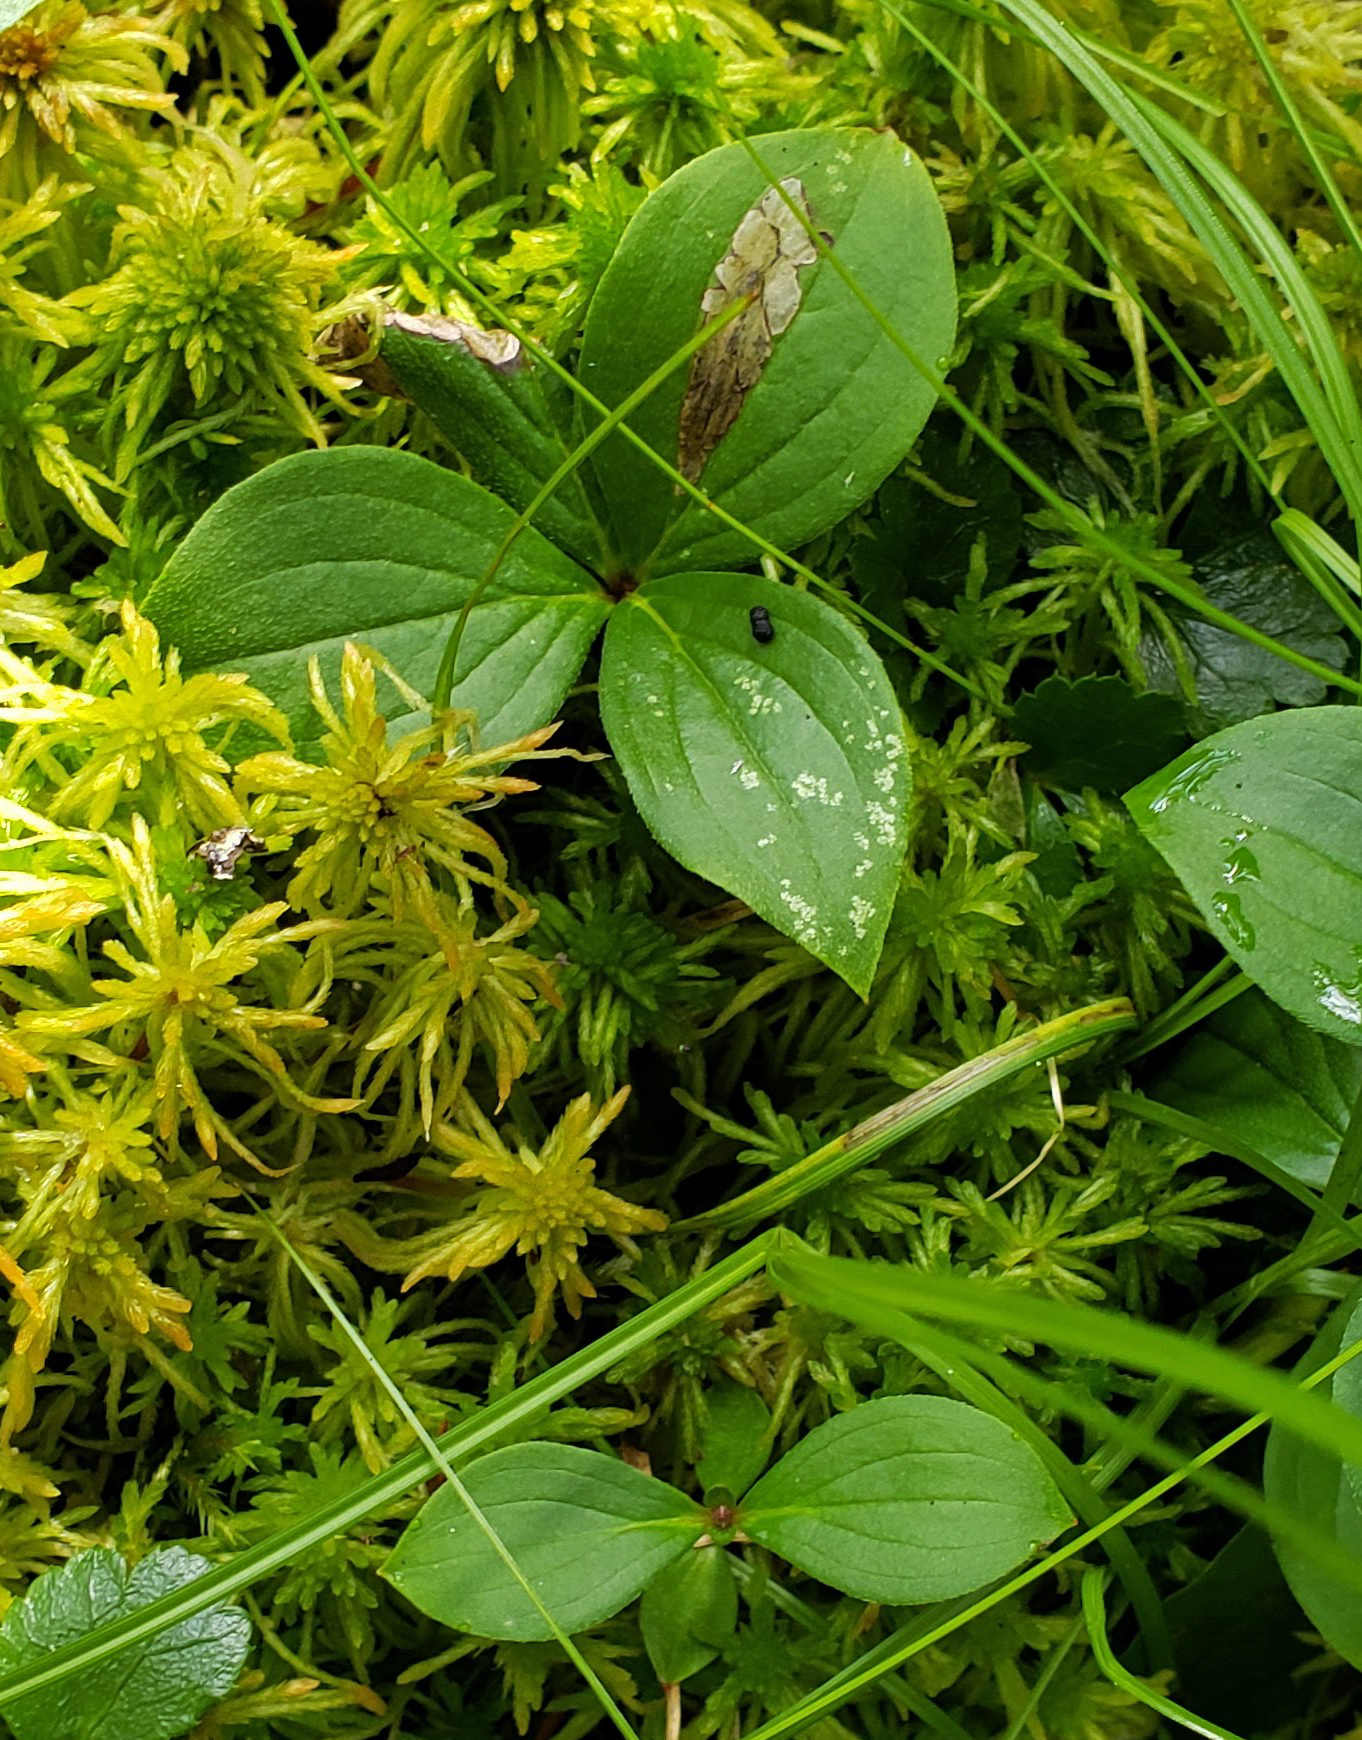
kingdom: Plantae
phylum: Tracheophyta
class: Magnoliopsida
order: Cornales
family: Cornaceae
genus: Cornus
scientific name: Cornus canadensis
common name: Creeping dogwood
